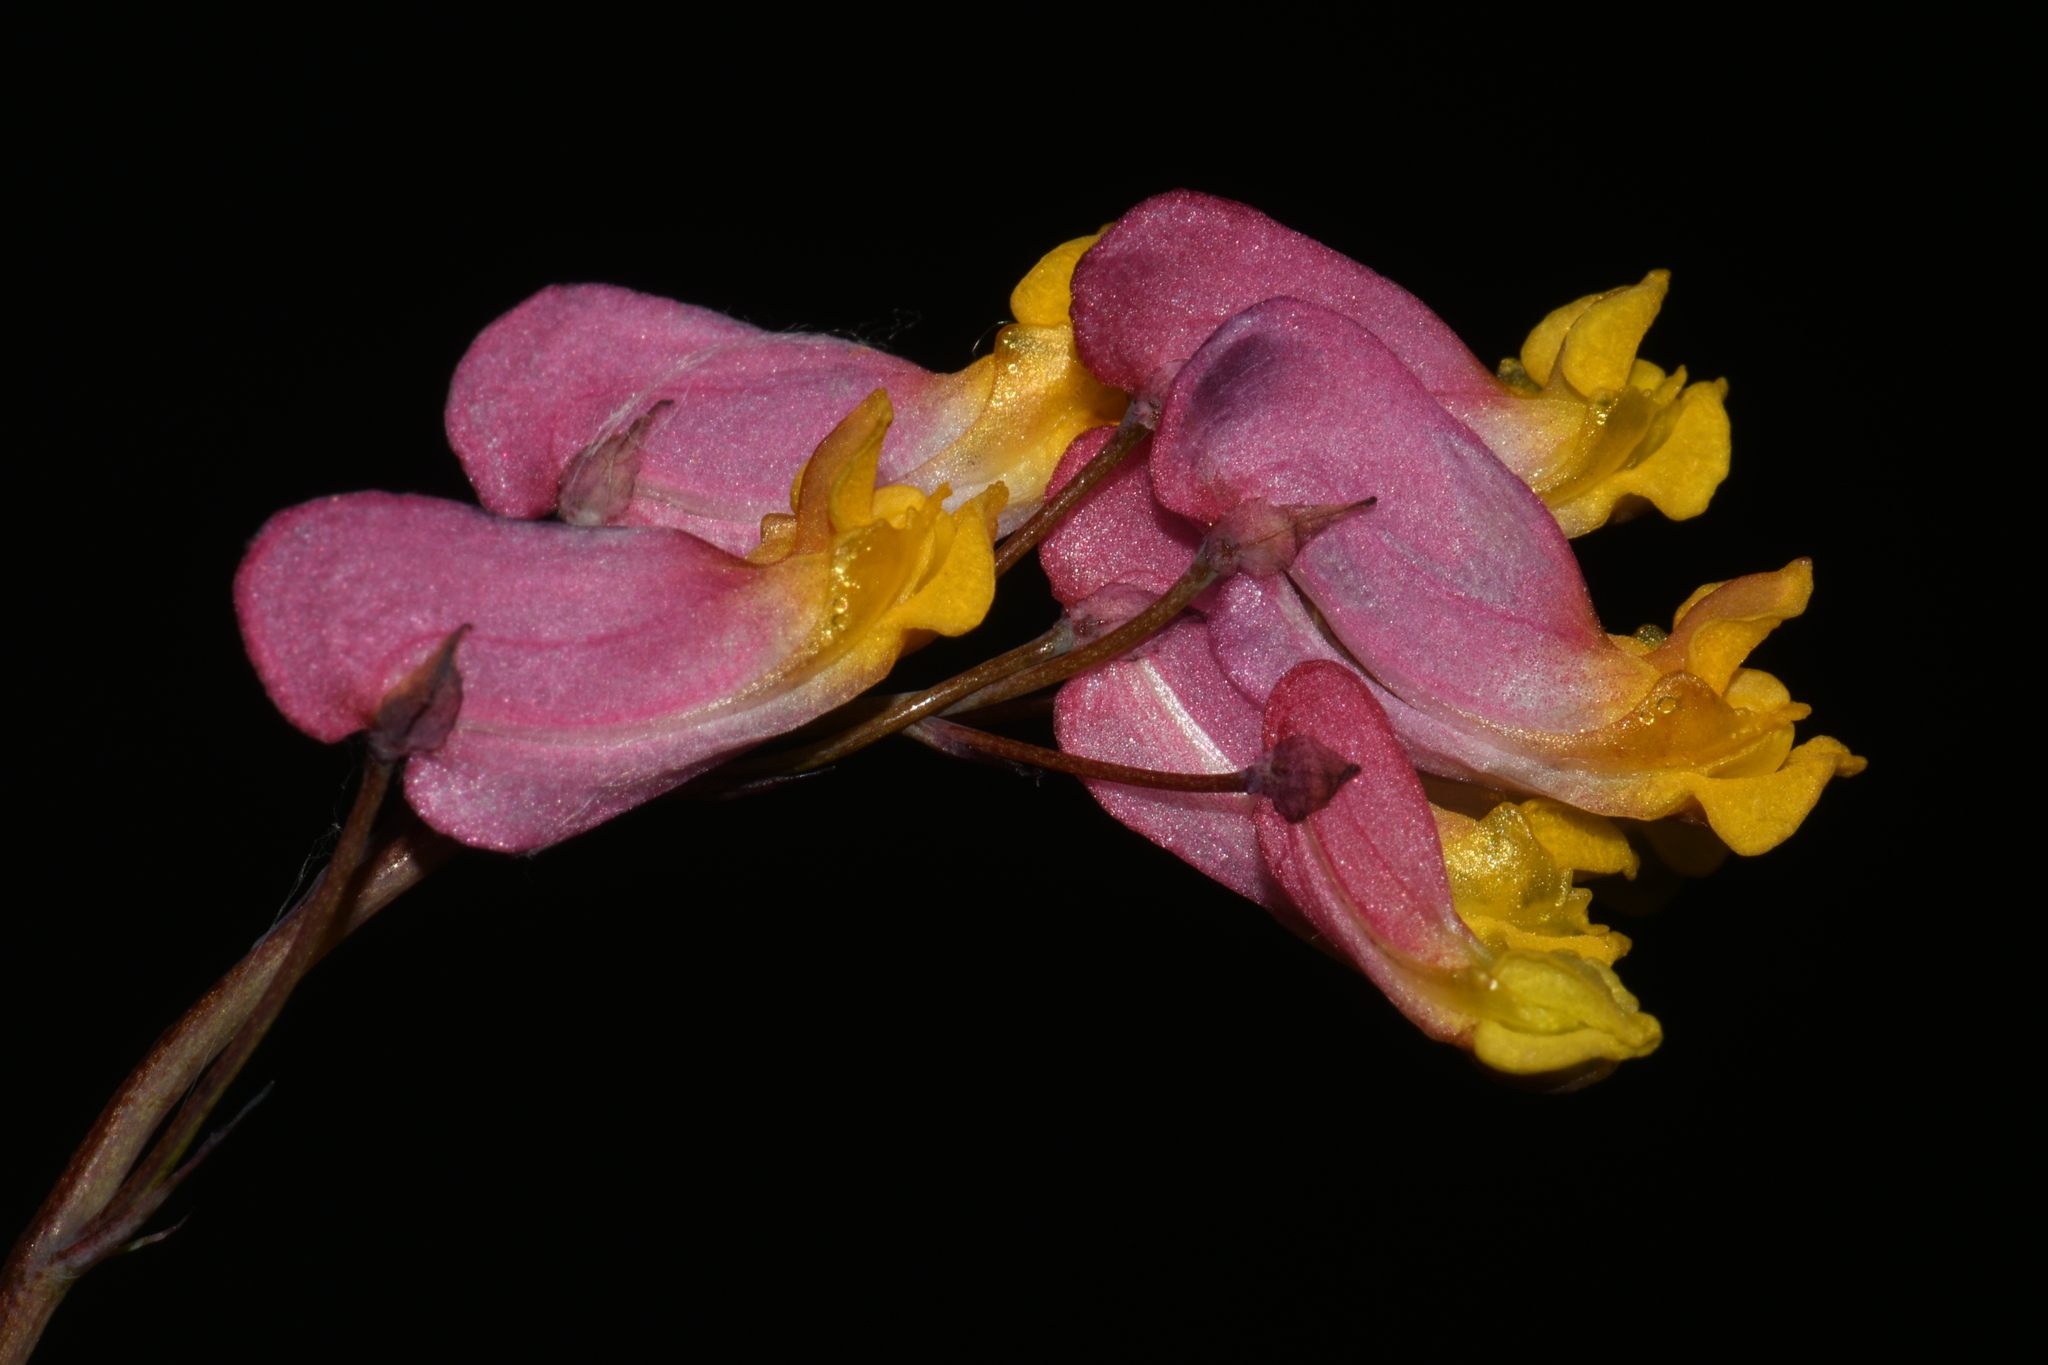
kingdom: Plantae
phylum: Tracheophyta
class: Magnoliopsida
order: Ranunculales
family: Papaveraceae
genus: Capnoides
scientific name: Capnoides sempervirens
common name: Rock harlequin
